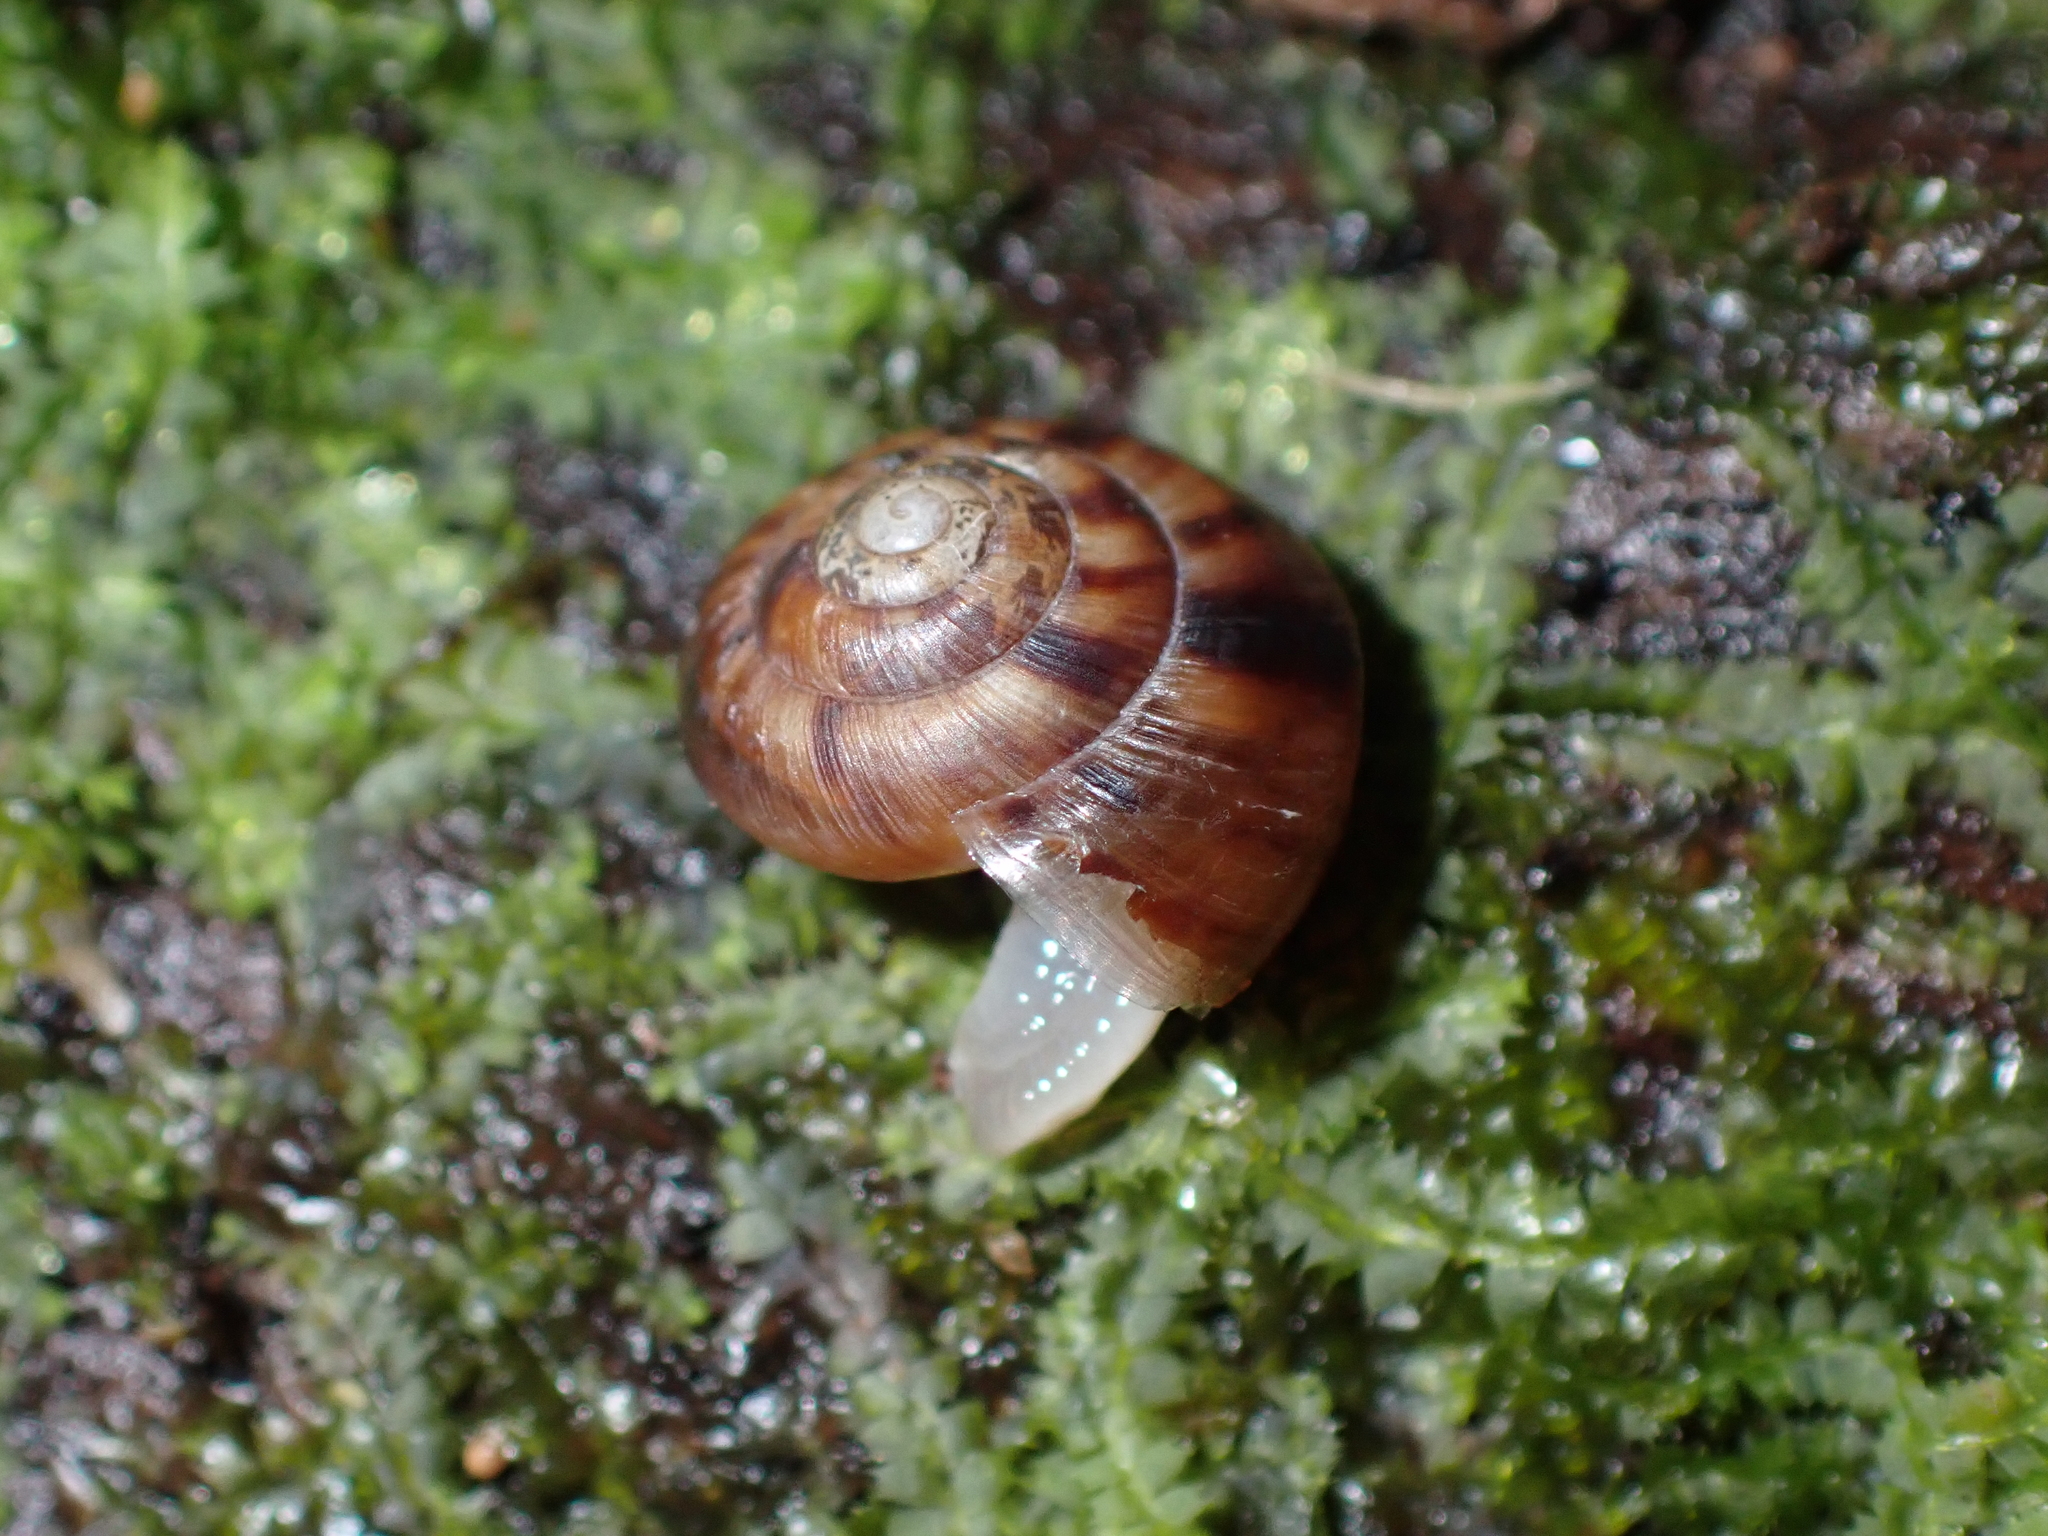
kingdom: Animalia
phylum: Mollusca
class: Gastropoda
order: Stylommatophora
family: Charopidae
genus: Serpho
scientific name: Serpho
